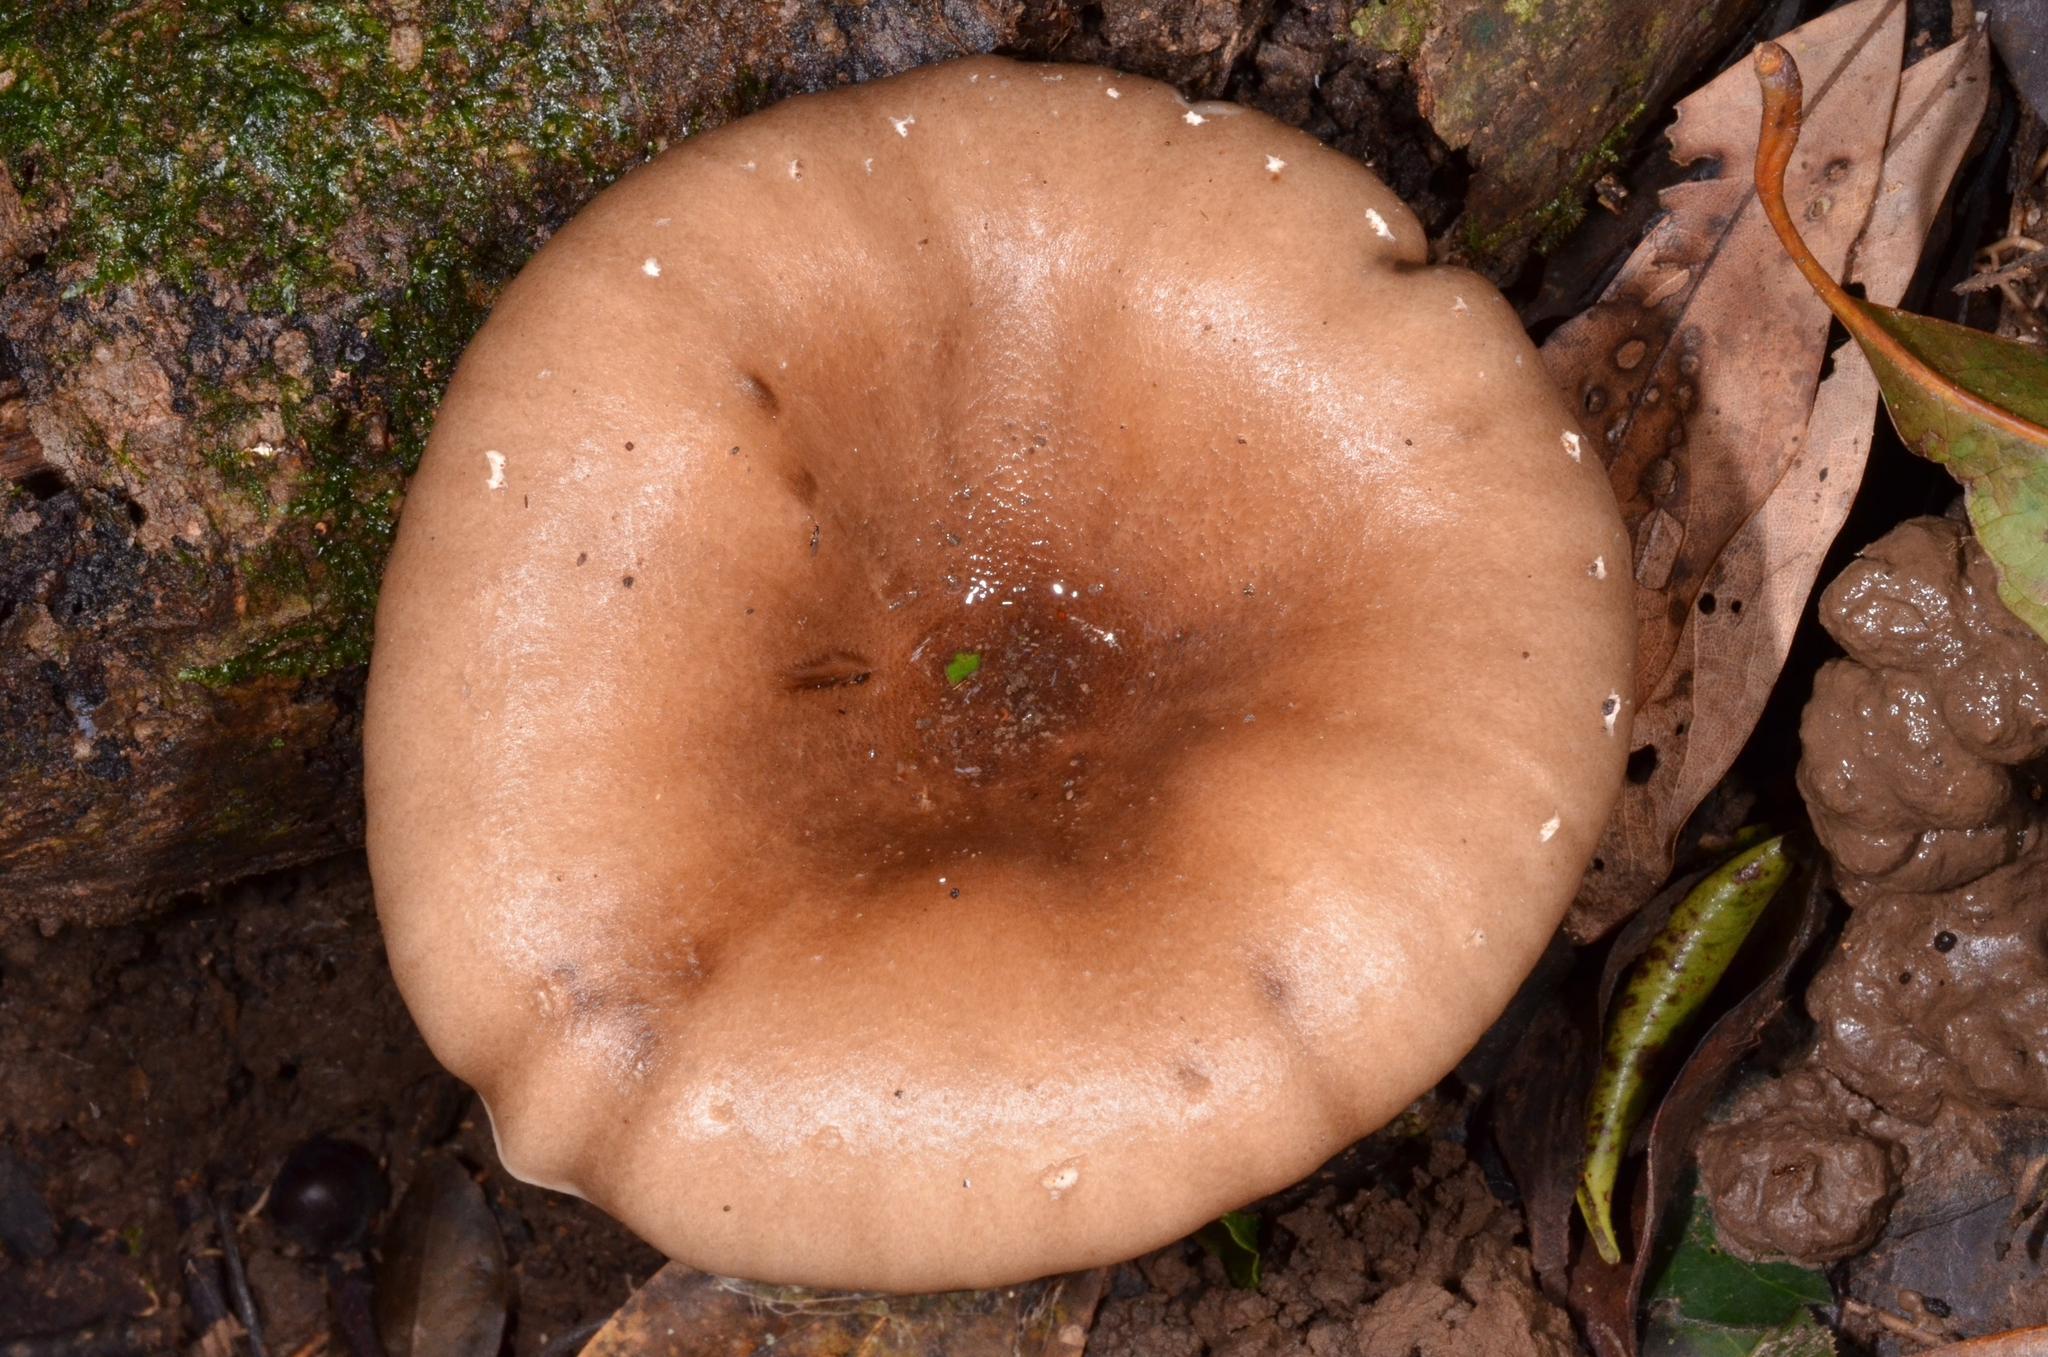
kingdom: Fungi
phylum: Basidiomycota
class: Agaricomycetes
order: Agaricales
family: Pleurotaceae
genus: Pleurotus
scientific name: Pleurotus giganteus
